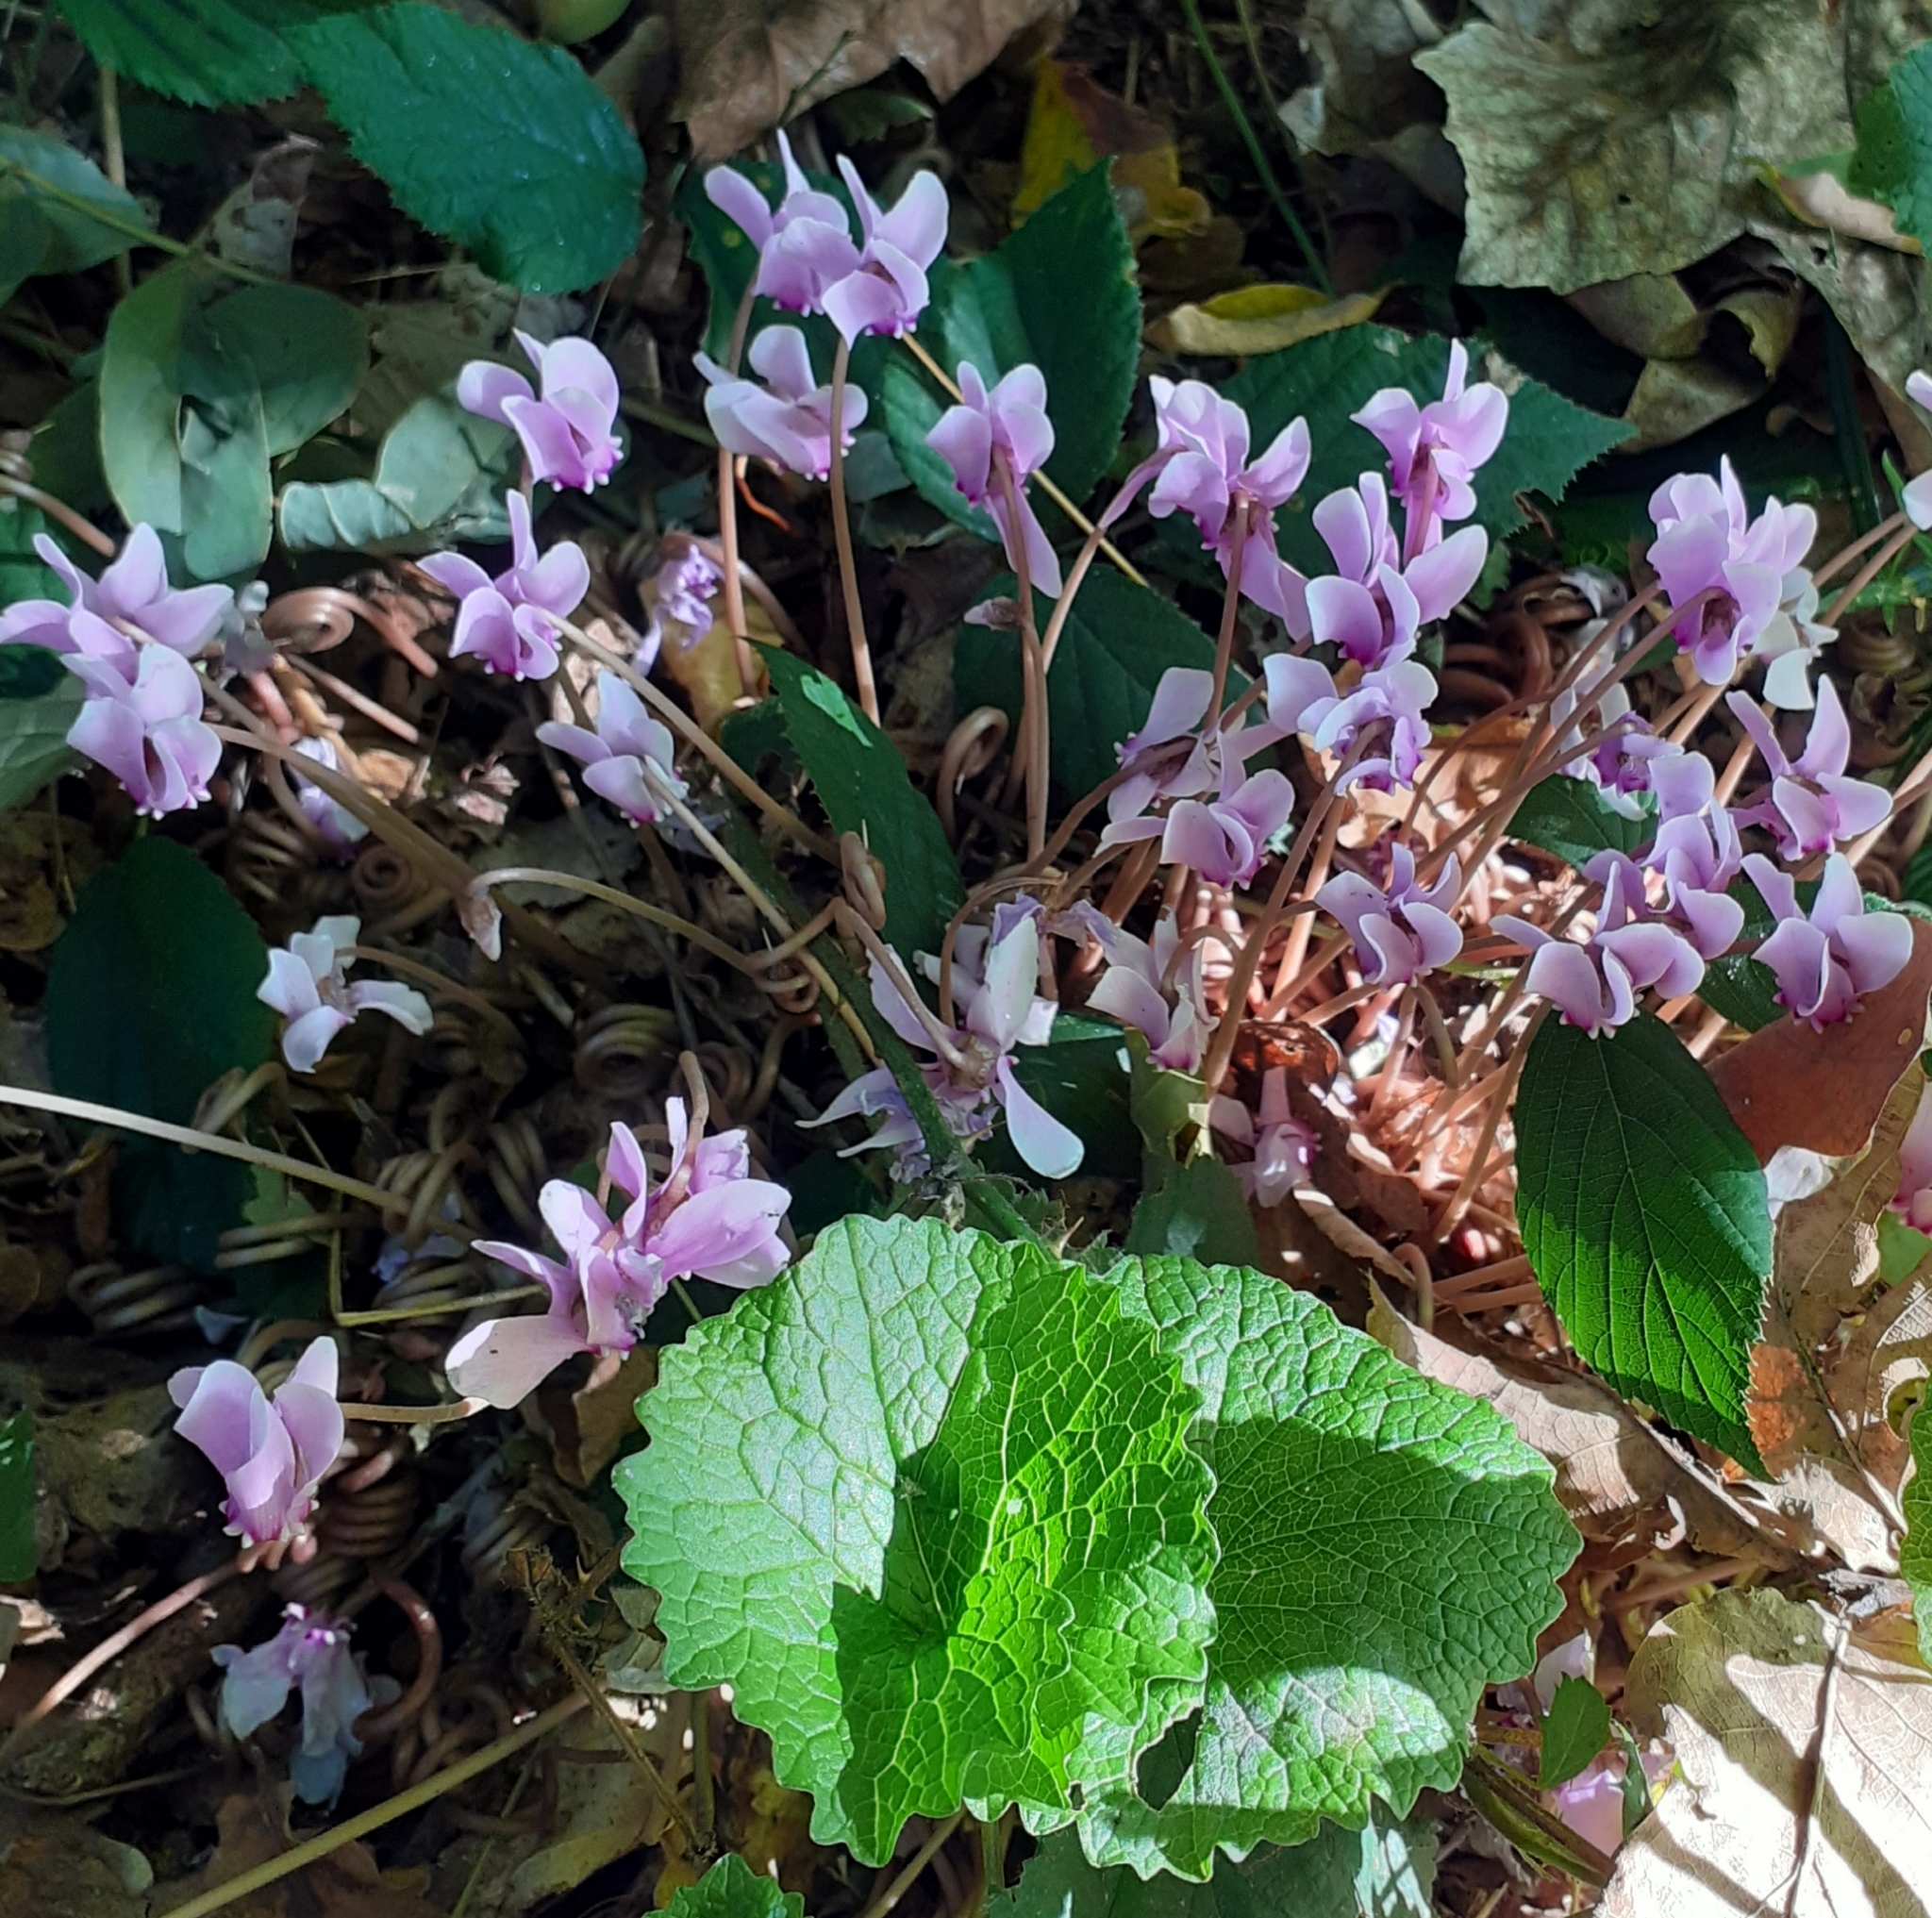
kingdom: Plantae
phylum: Tracheophyta
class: Magnoliopsida
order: Ericales
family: Primulaceae
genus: Cyclamen
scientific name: Cyclamen hederifolium
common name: Sowbread
